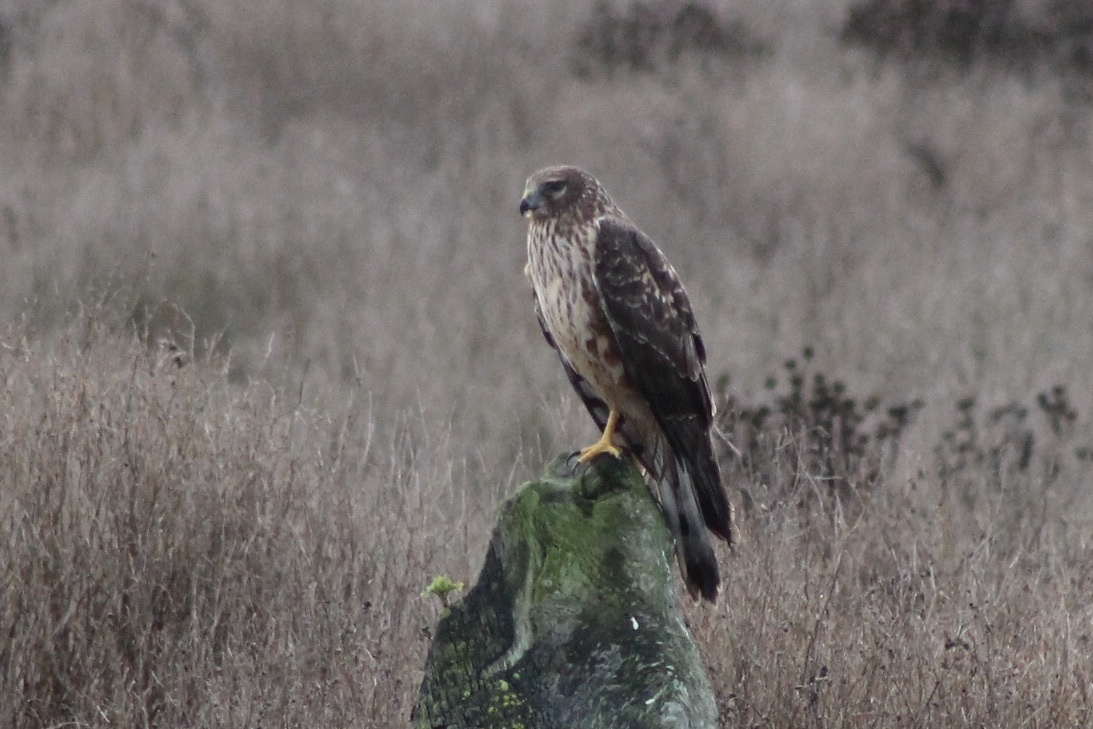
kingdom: Animalia
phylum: Chordata
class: Aves
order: Accipitriformes
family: Accipitridae
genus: Circus
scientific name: Circus cyaneus
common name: Hen harrier
